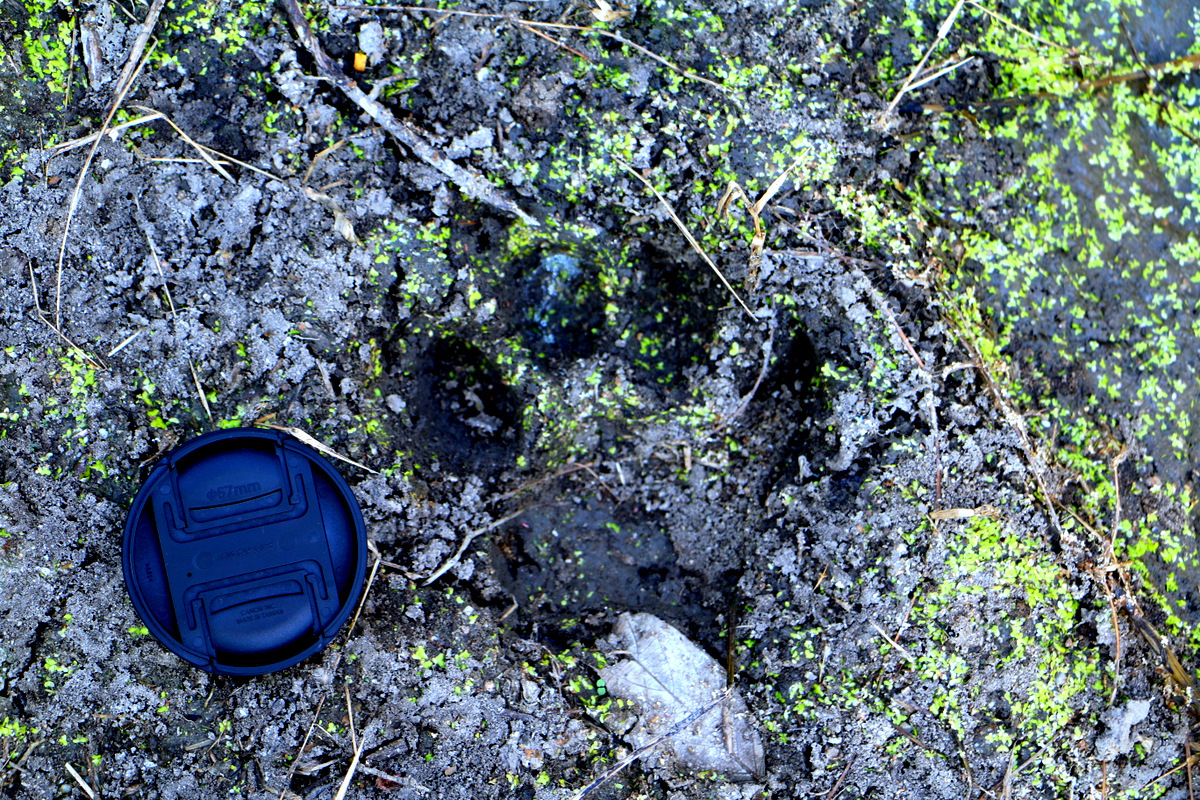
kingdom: Animalia
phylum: Chordata
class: Mammalia
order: Carnivora
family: Felidae
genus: Panthera
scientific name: Panthera tigris
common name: Tiger
